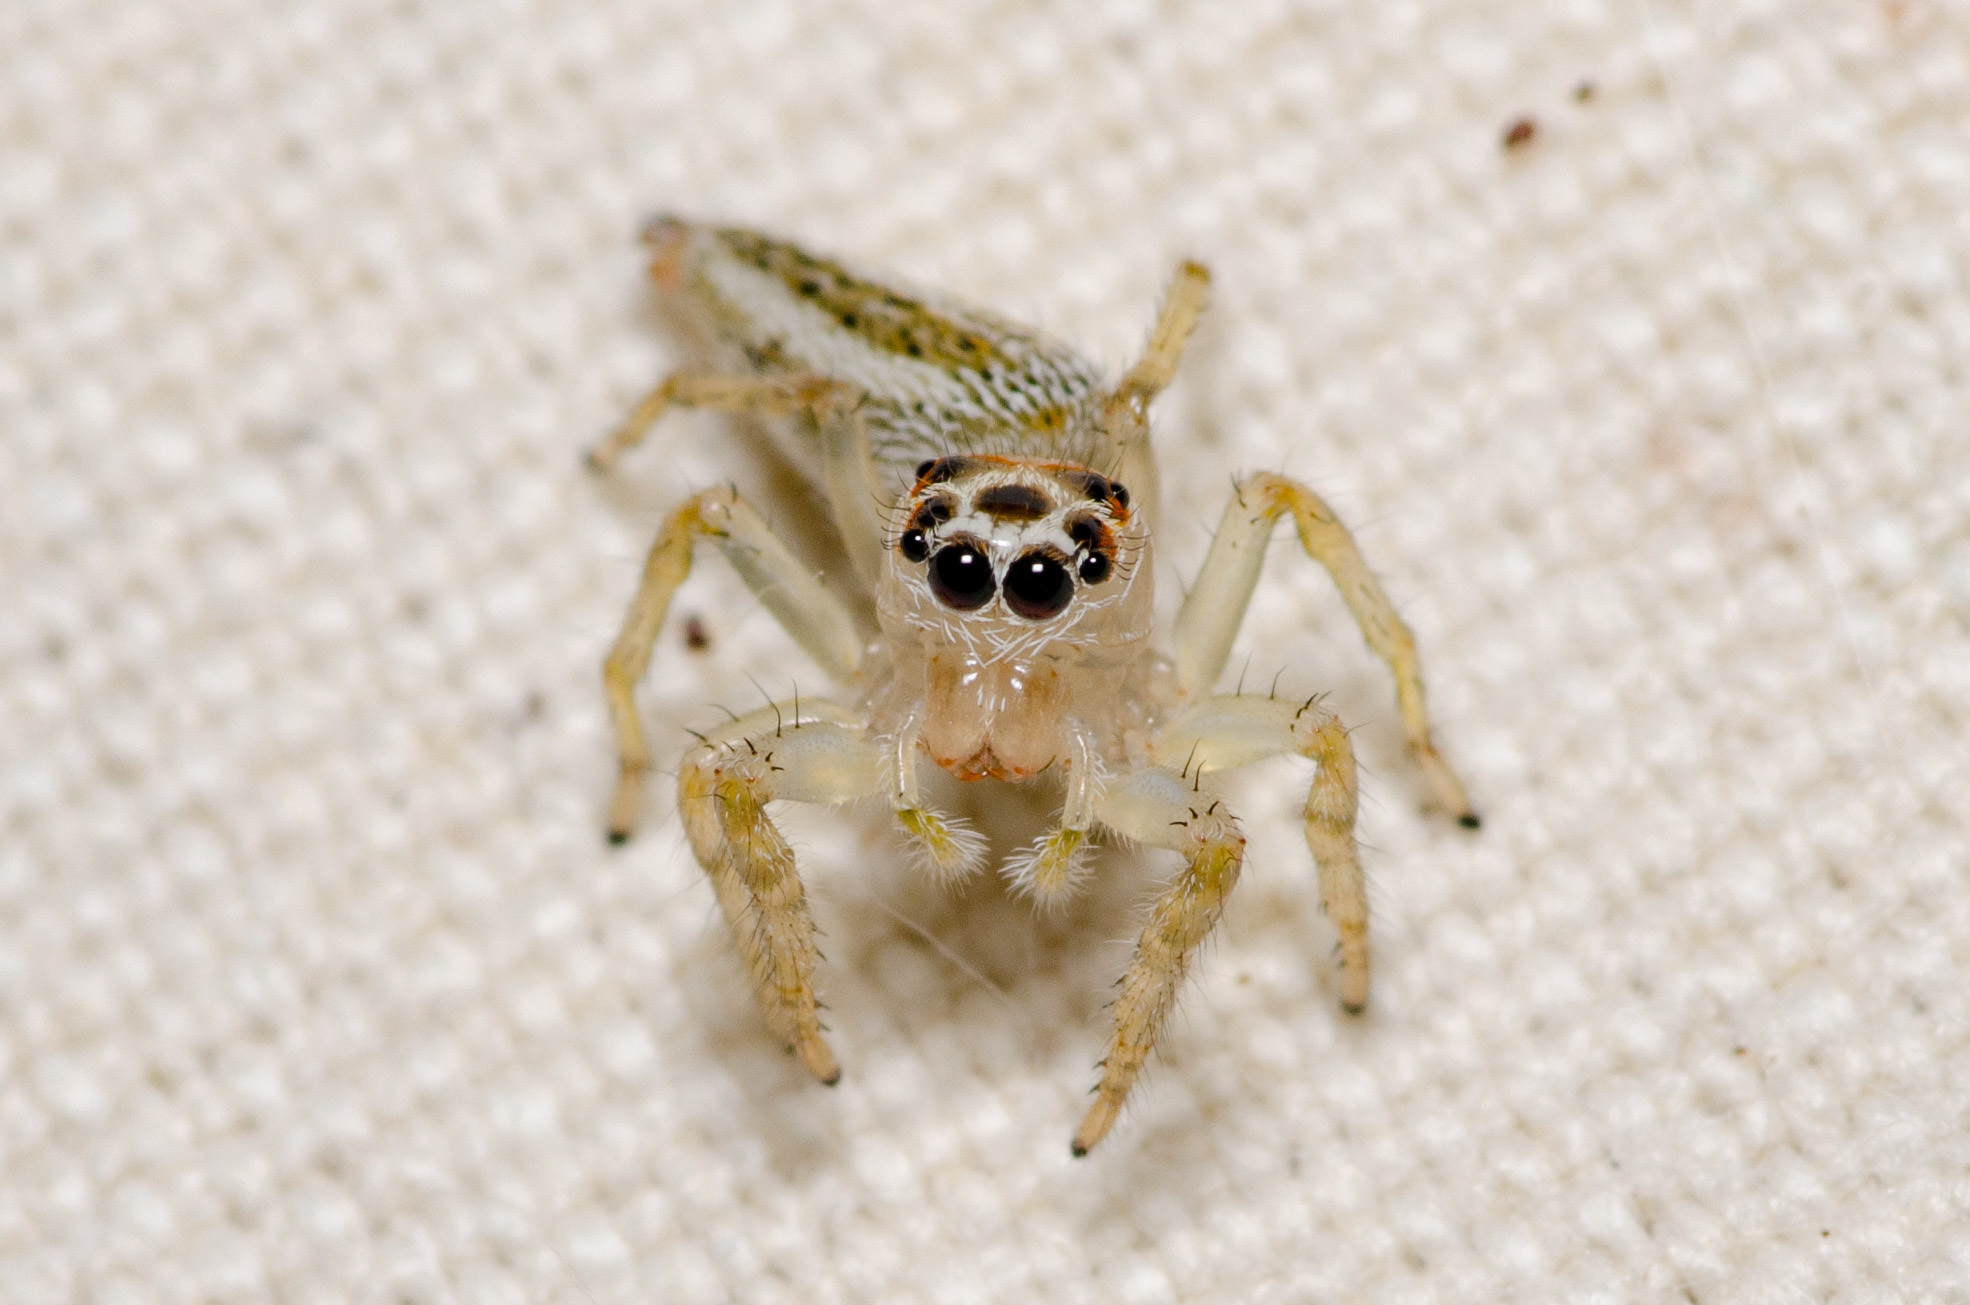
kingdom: Animalia
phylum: Arthropoda
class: Arachnida
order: Araneae
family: Salticidae
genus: Colonus
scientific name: Colonus sylvanus
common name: Jumping spiders
